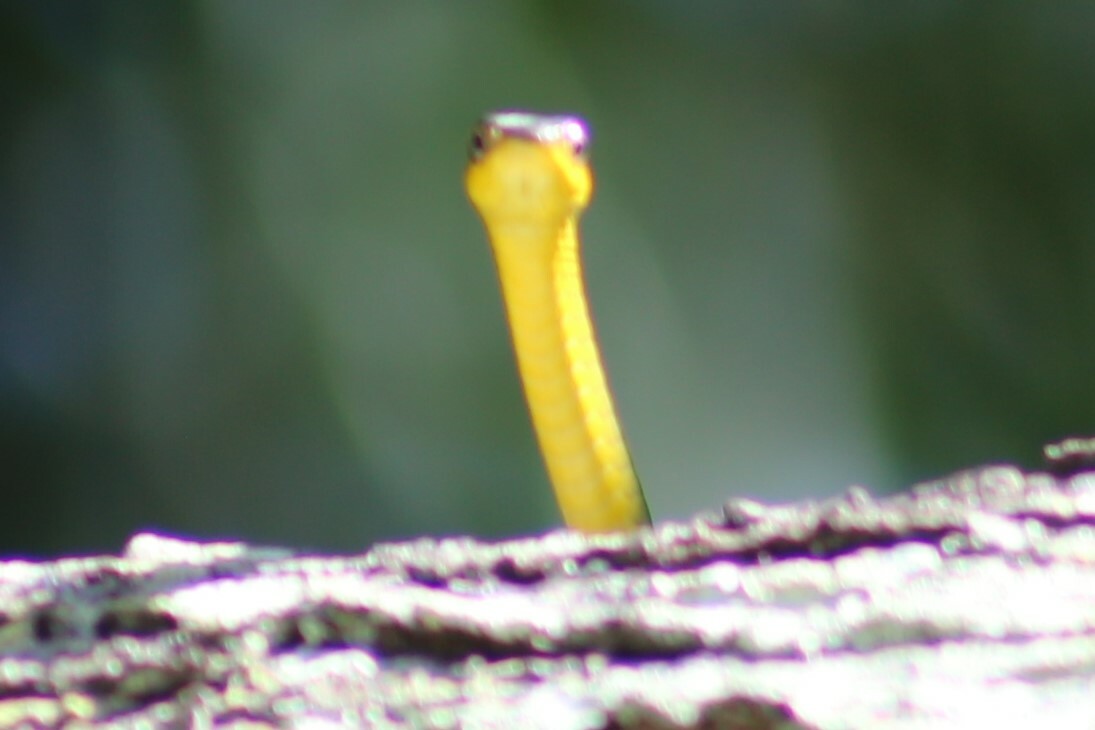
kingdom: Animalia
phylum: Chordata
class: Squamata
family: Colubridae
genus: Dendrelaphis
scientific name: Dendrelaphis punctulatus
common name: Common tree snake
